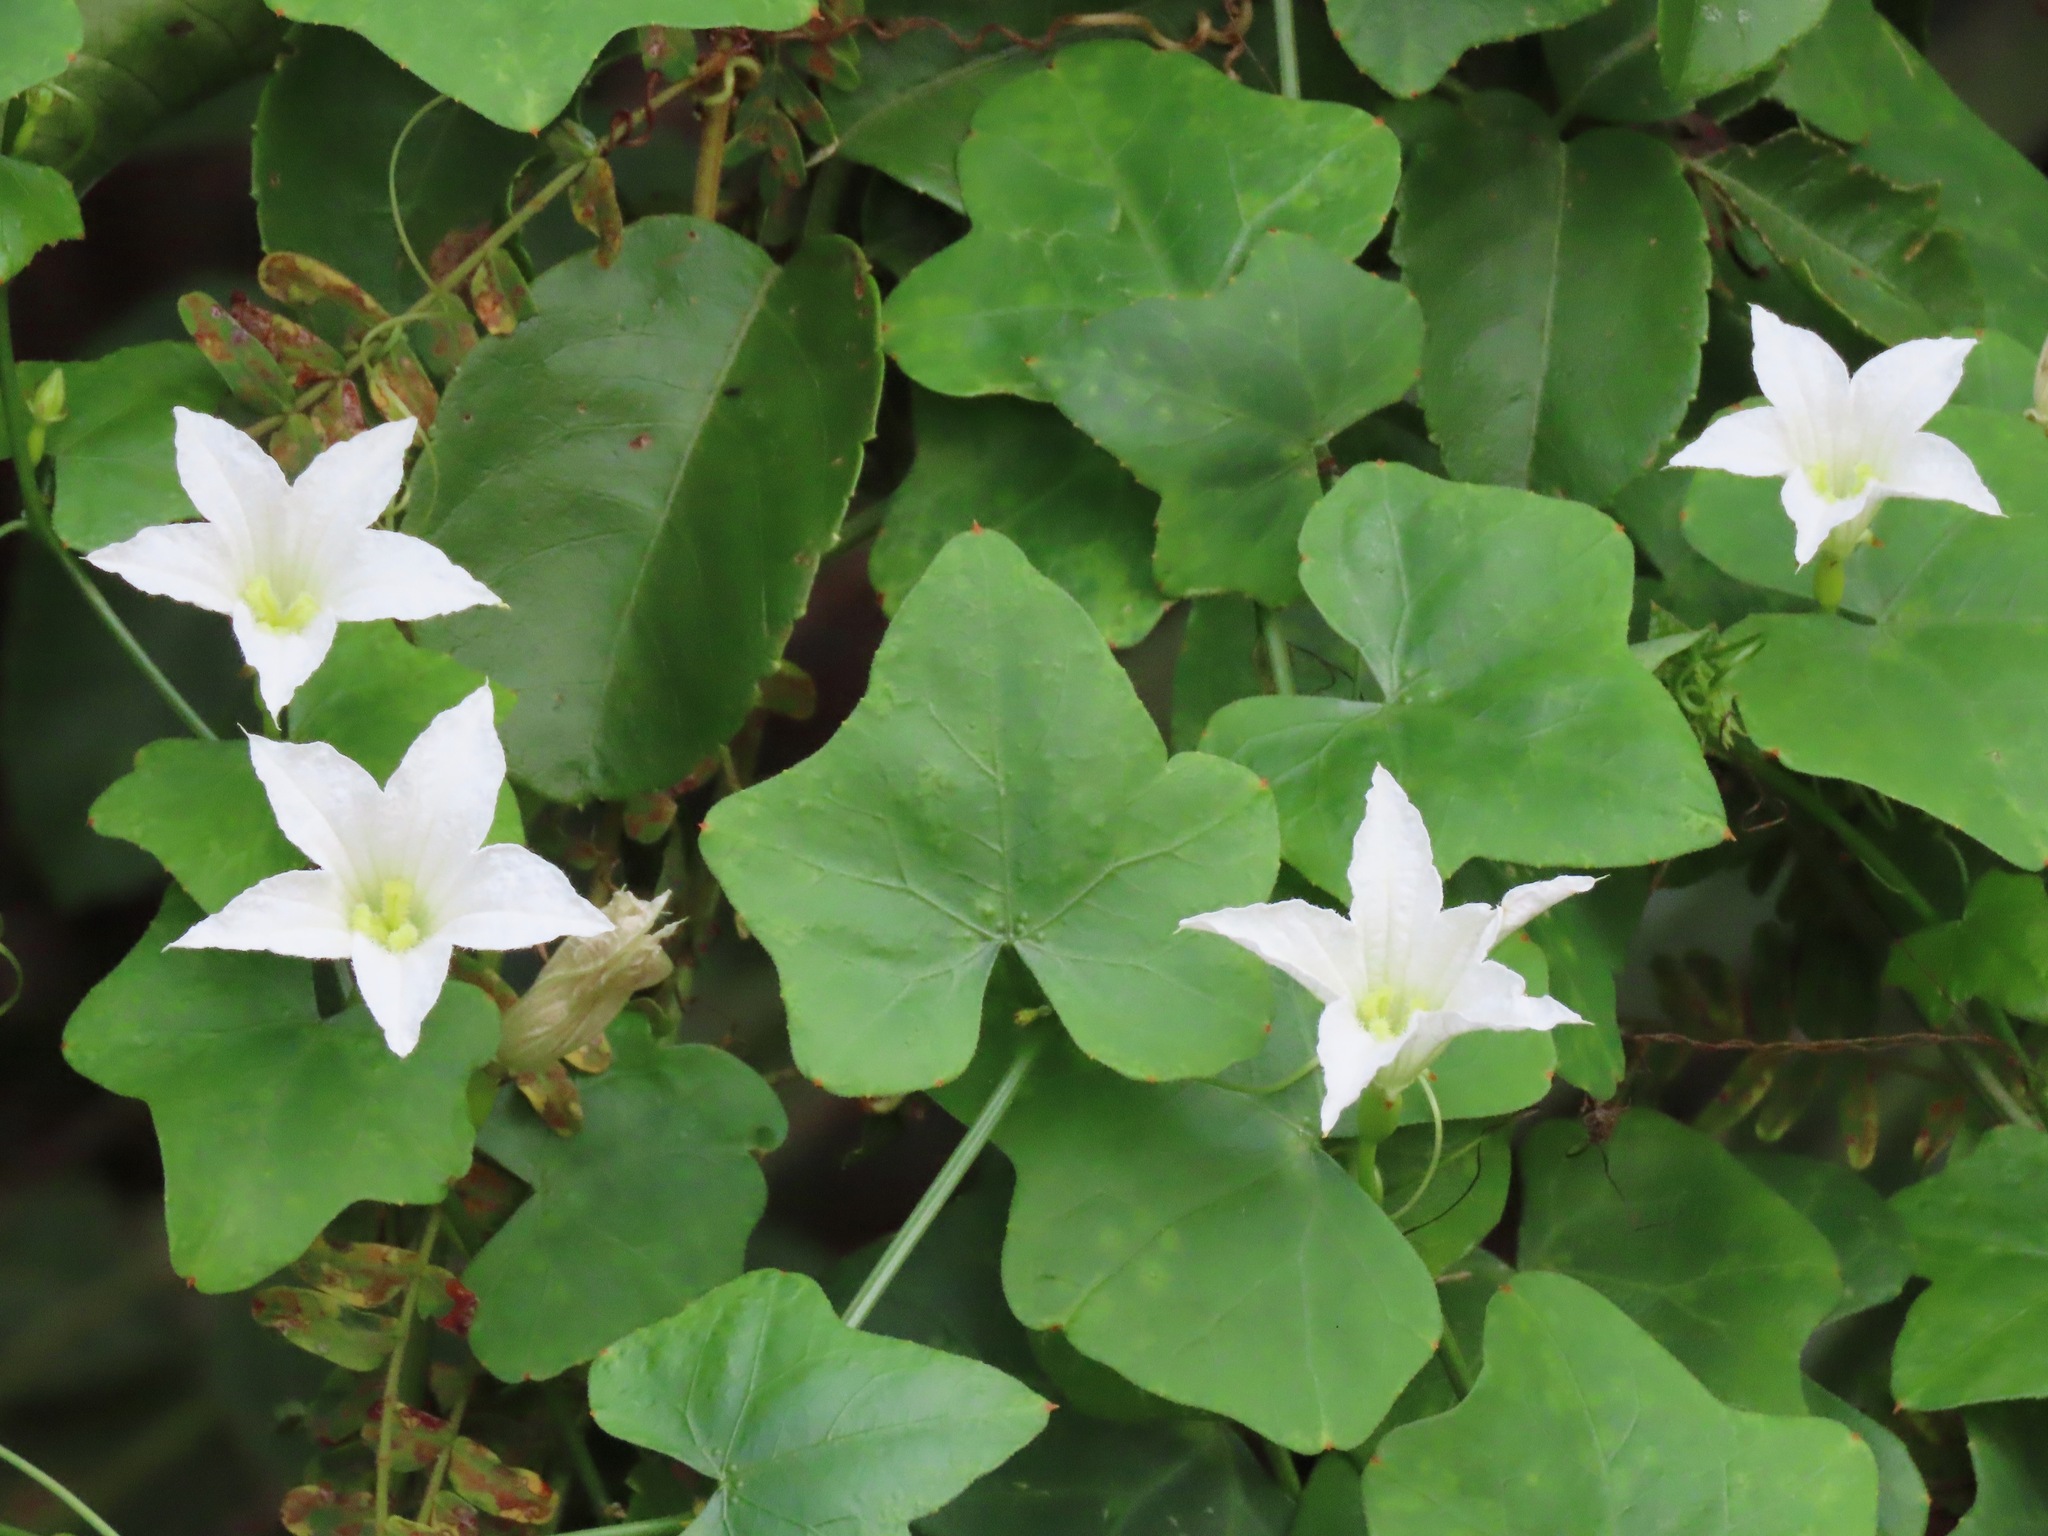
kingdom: Plantae
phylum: Tracheophyta
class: Magnoliopsida
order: Cucurbitales
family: Cucurbitaceae
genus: Coccinia
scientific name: Coccinia grandis
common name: Ivy gourd
